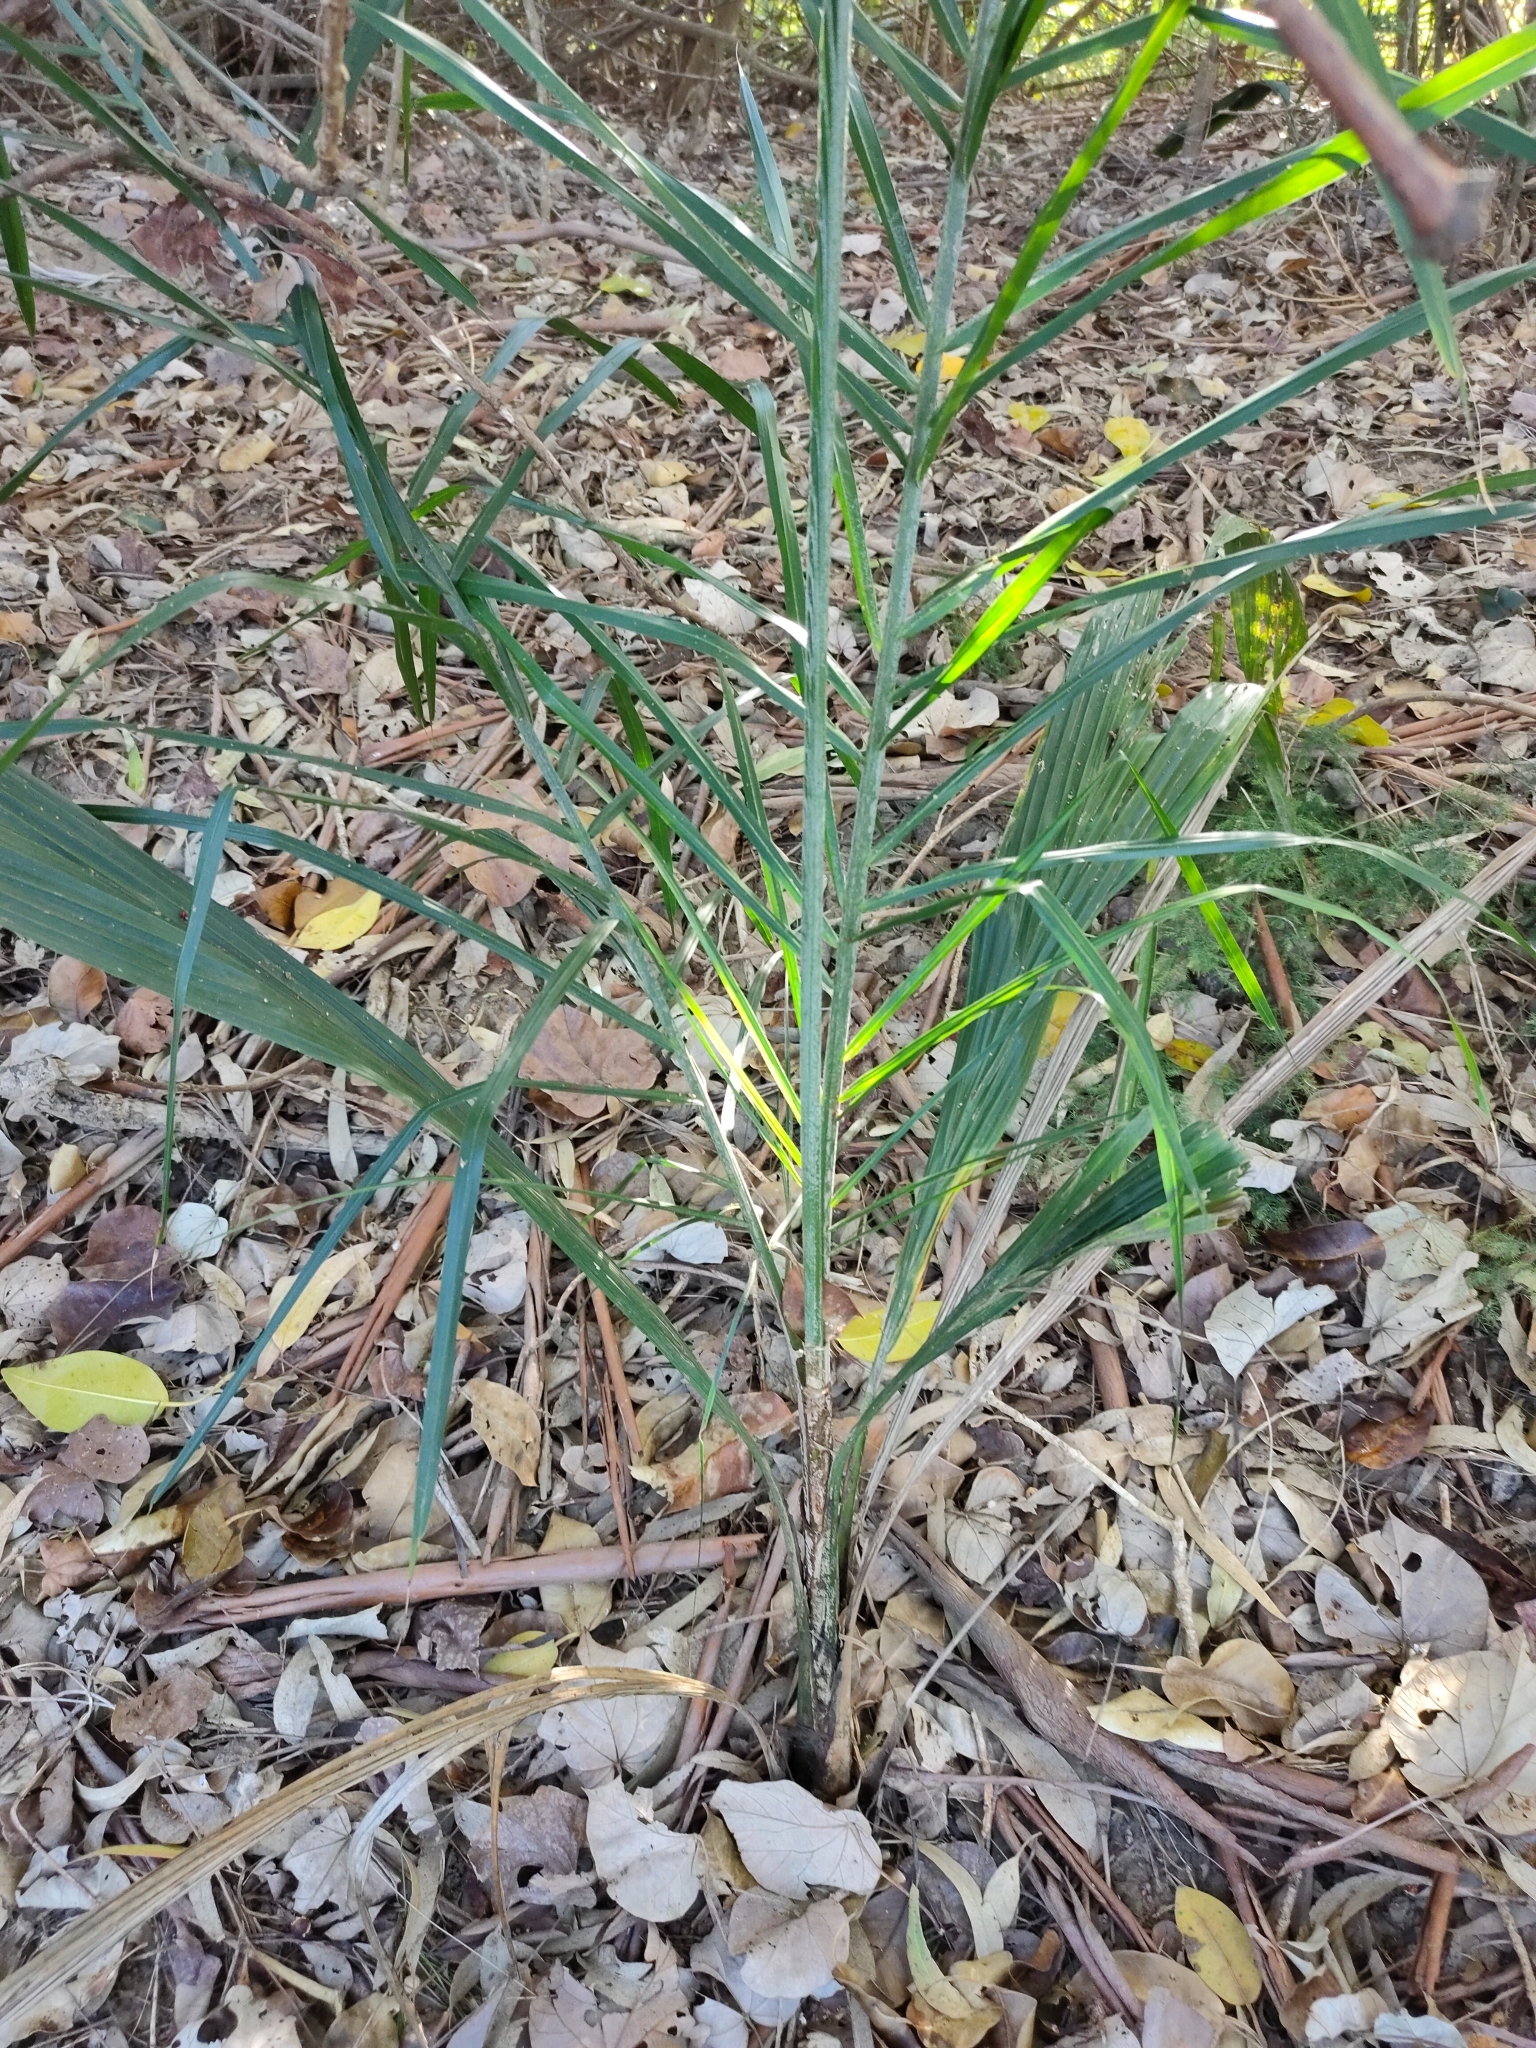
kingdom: Plantae
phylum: Tracheophyta
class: Liliopsida
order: Arecales
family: Arecaceae
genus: Syagrus
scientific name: Syagrus romanzoffiana
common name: Queen palm
